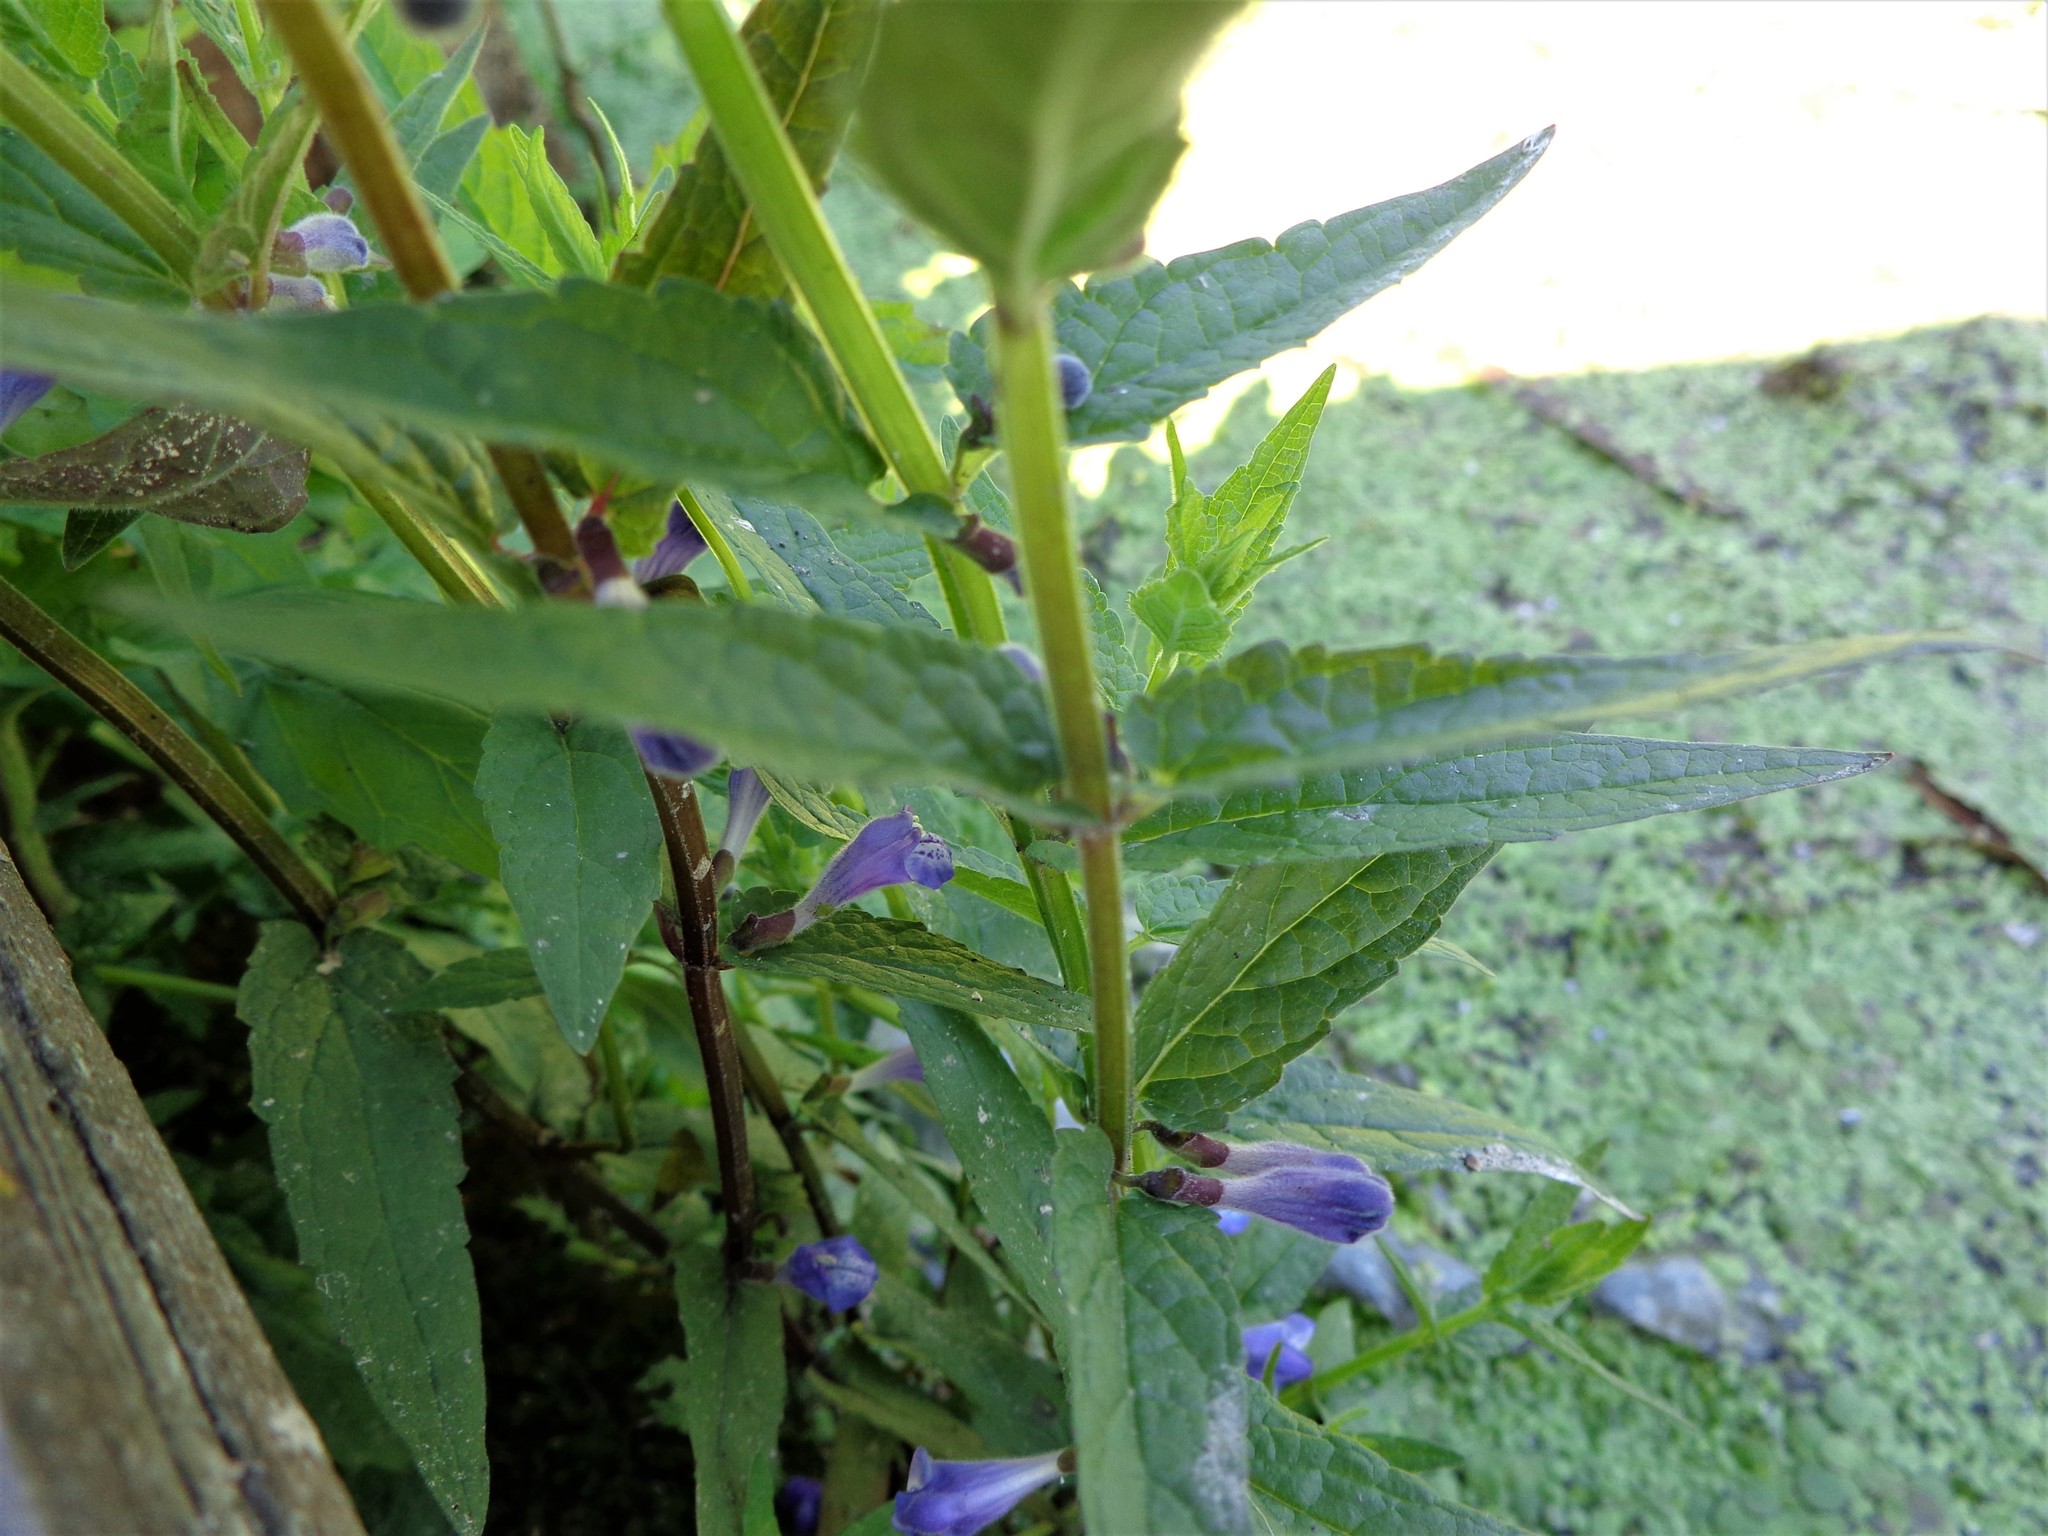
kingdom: Plantae
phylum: Tracheophyta
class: Magnoliopsida
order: Lamiales
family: Lamiaceae
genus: Scutellaria
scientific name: Scutellaria galericulata
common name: Skullcap
